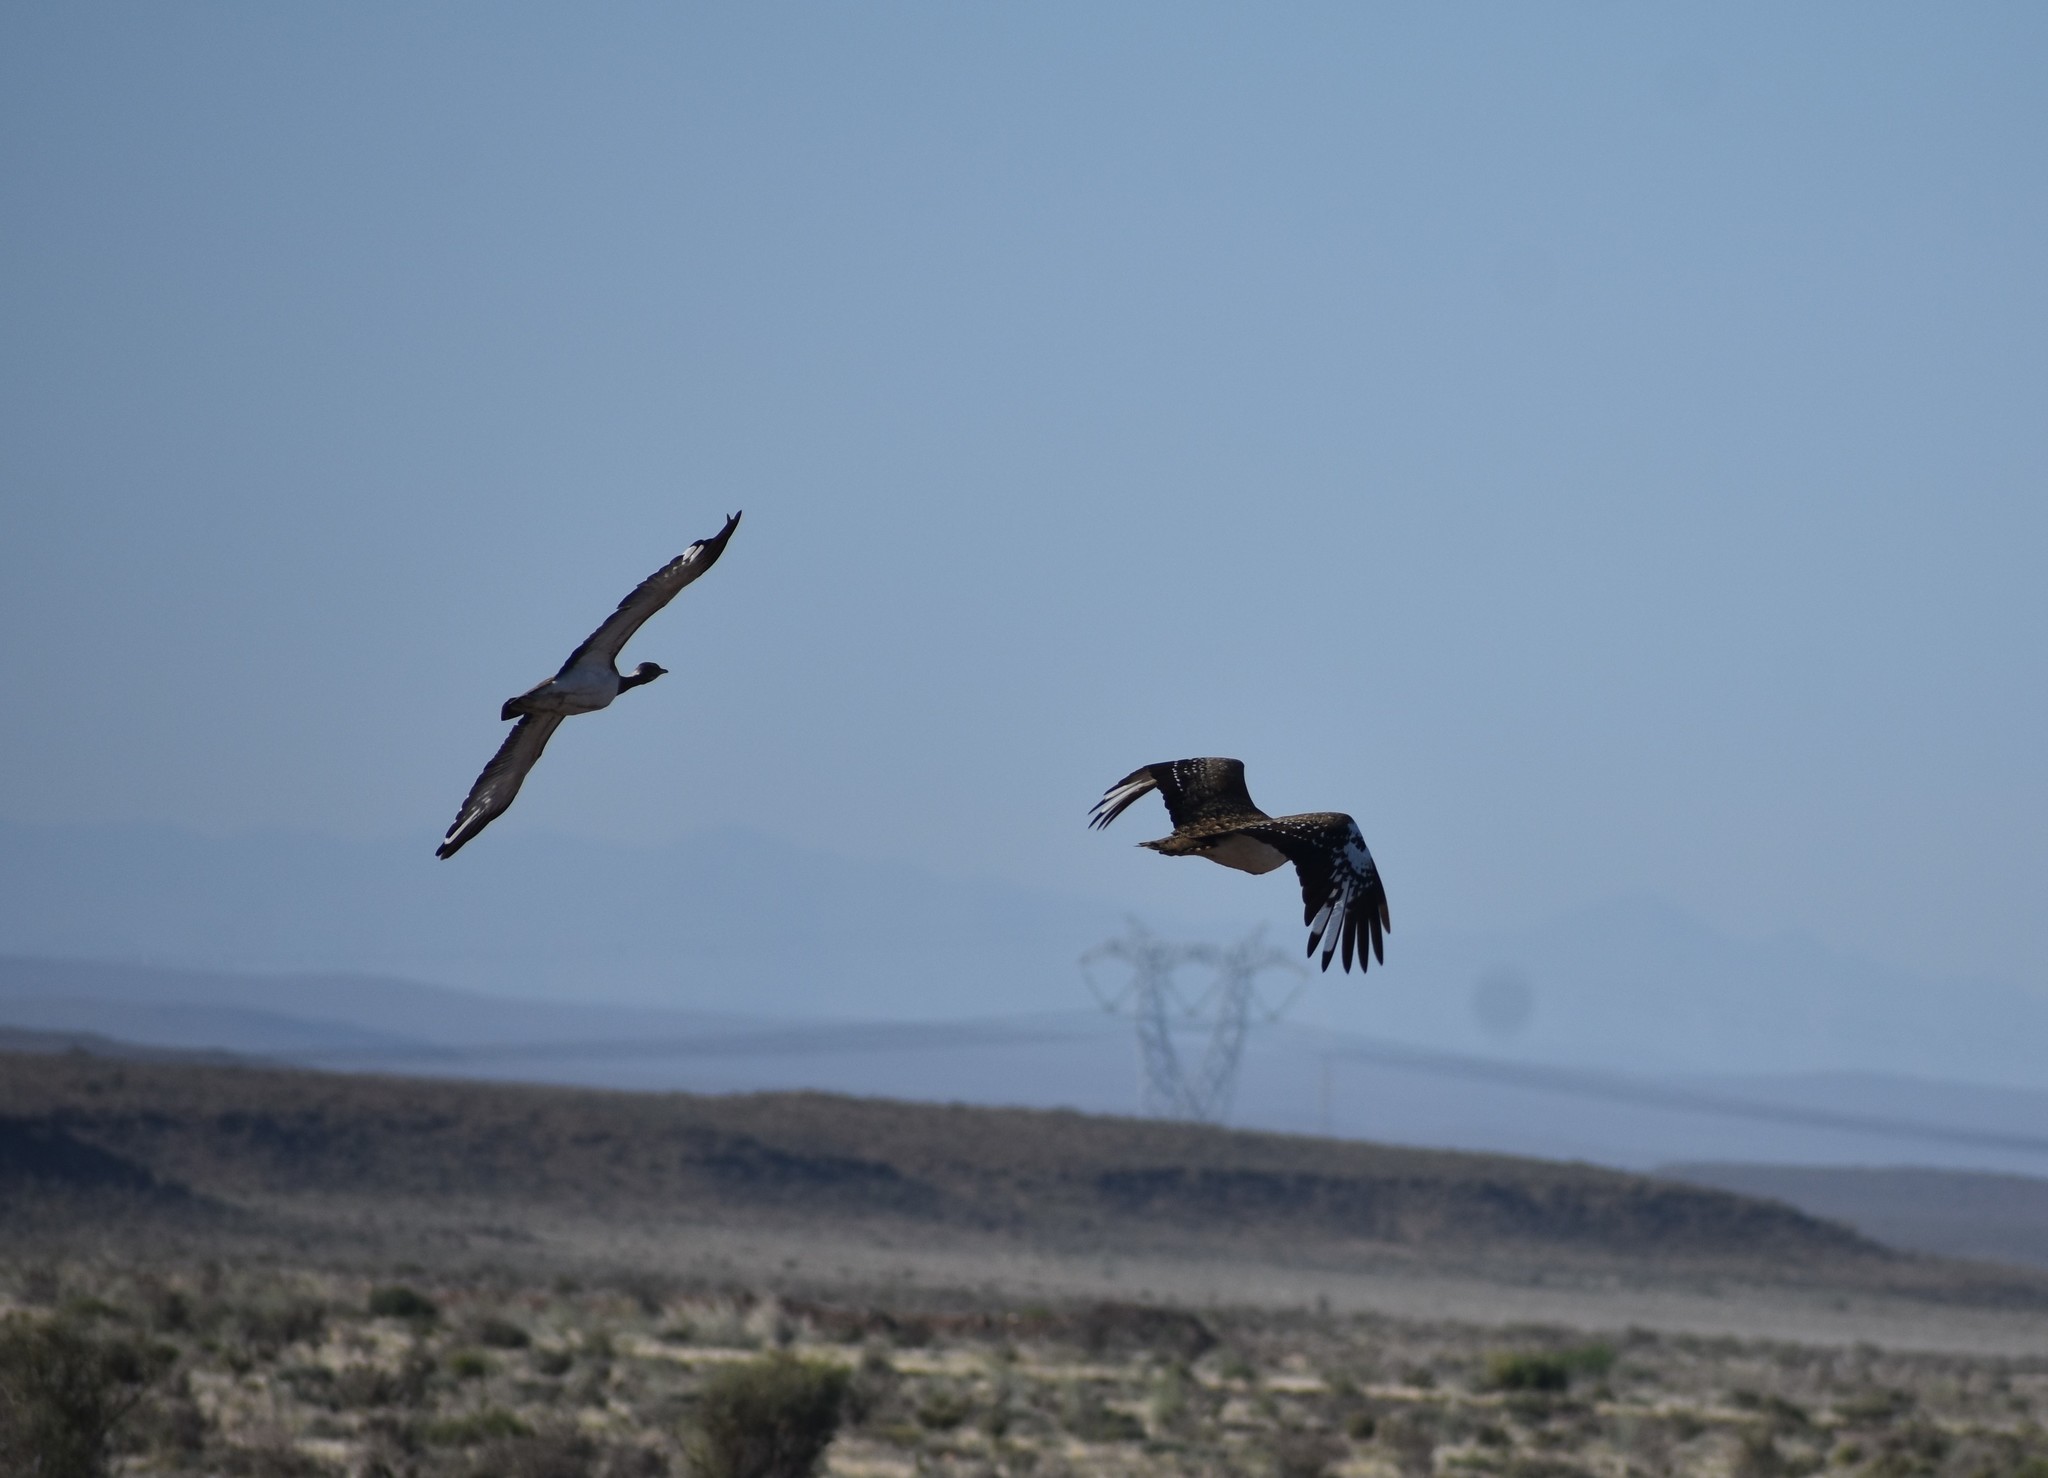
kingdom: Animalia
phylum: Chordata
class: Aves
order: Otidiformes
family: Otididae
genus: Neotis
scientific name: Neotis ludwigii
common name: Ludwig's bustard
